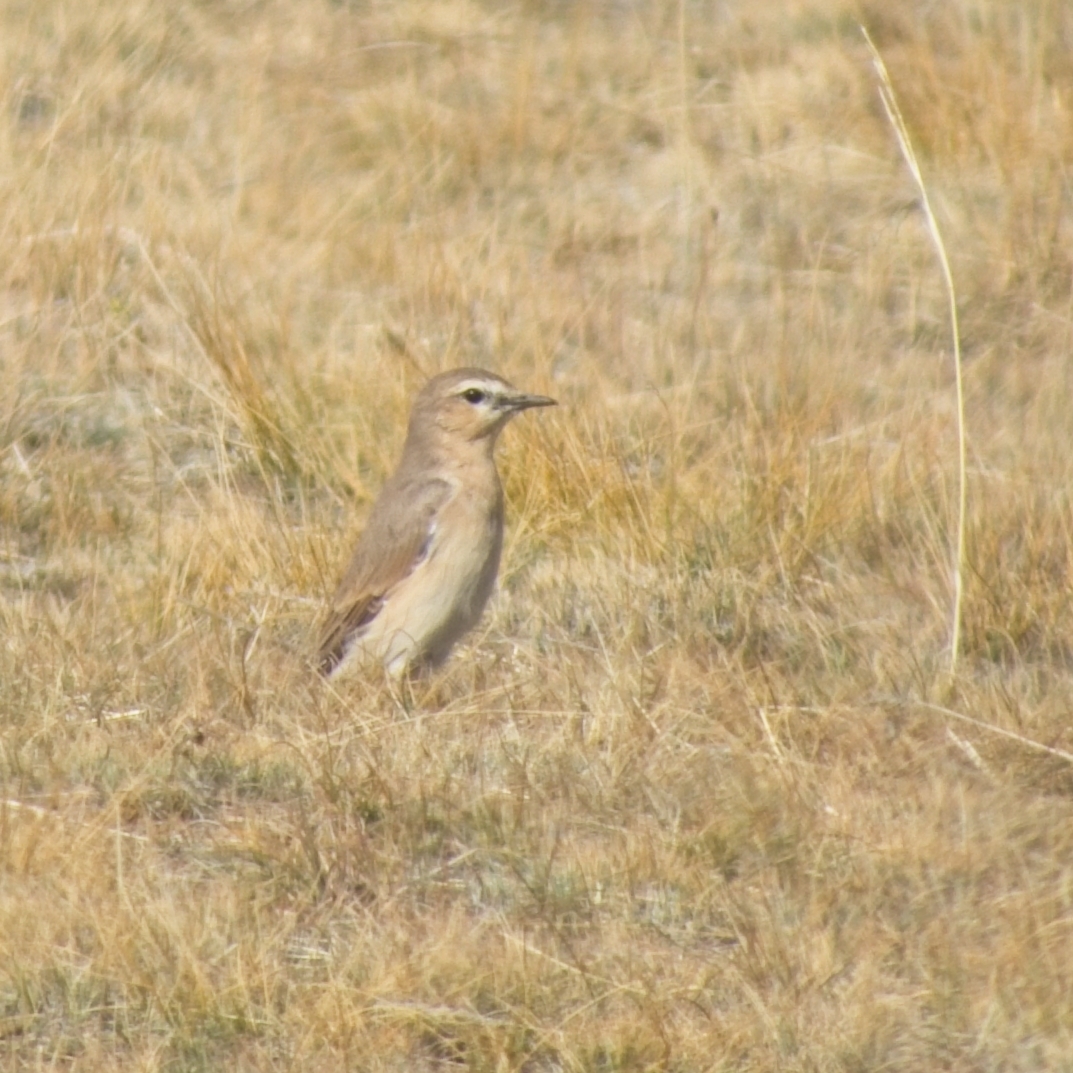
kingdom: Animalia
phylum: Chordata
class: Aves
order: Passeriformes
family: Muscicapidae
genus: Oenanthe
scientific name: Oenanthe isabellina
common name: Isabelline wheatear
